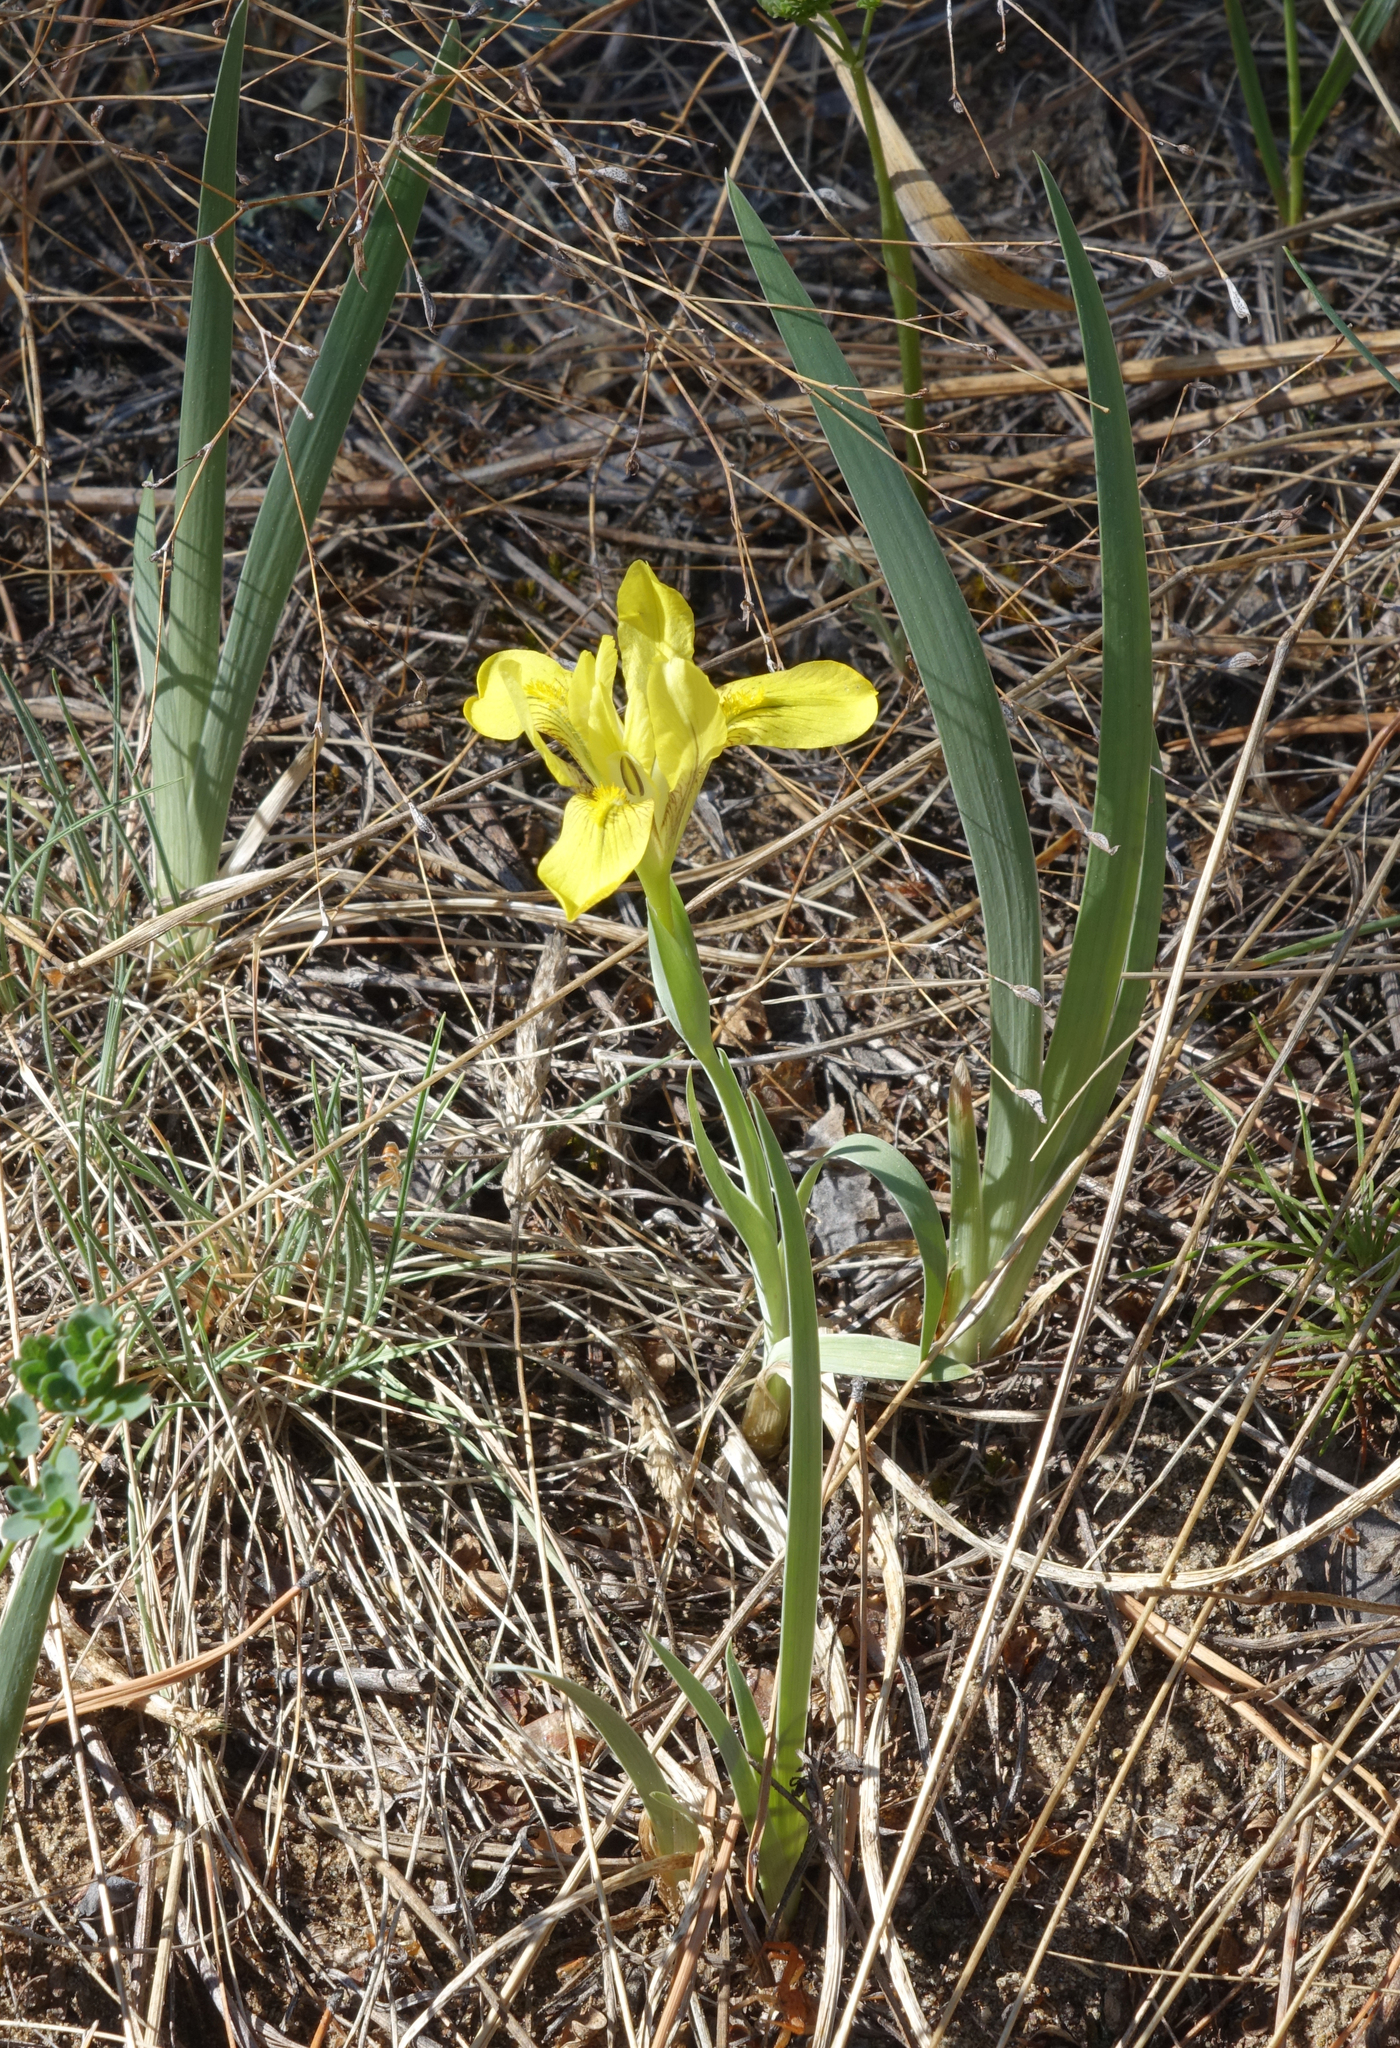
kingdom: Plantae
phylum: Tracheophyta
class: Liliopsida
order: Asparagales
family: Iridaceae
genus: Iris
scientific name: Iris humilis
